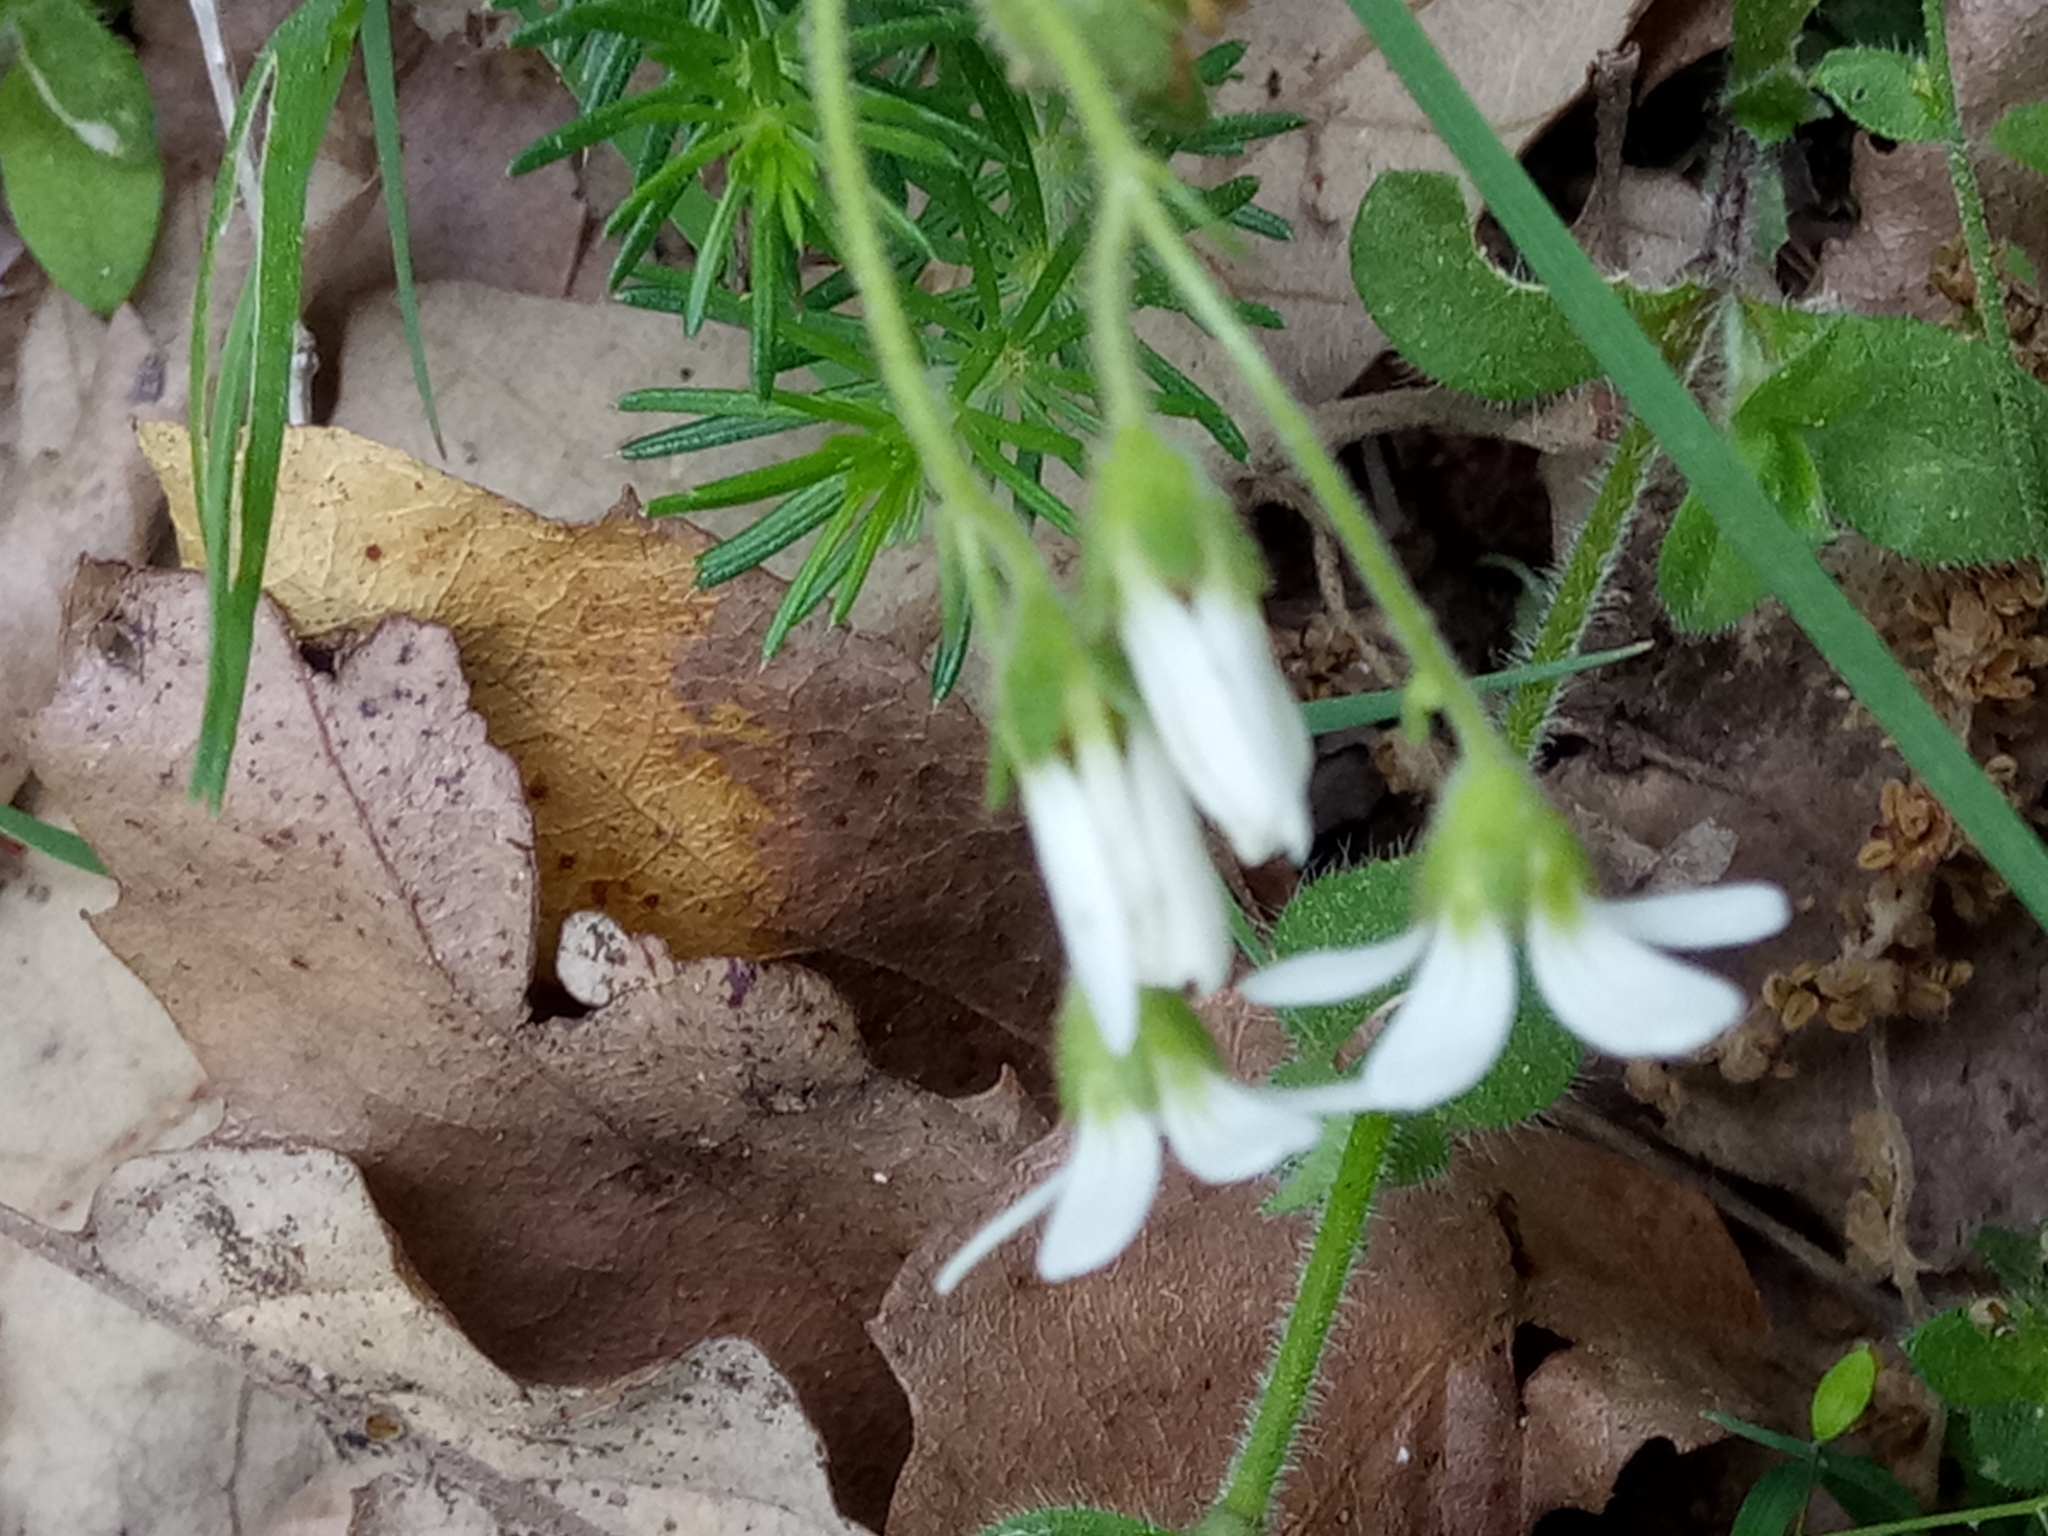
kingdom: Plantae
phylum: Tracheophyta
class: Magnoliopsida
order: Saxifragales
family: Saxifragaceae
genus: Saxifraga
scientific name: Saxifraga carpetana
